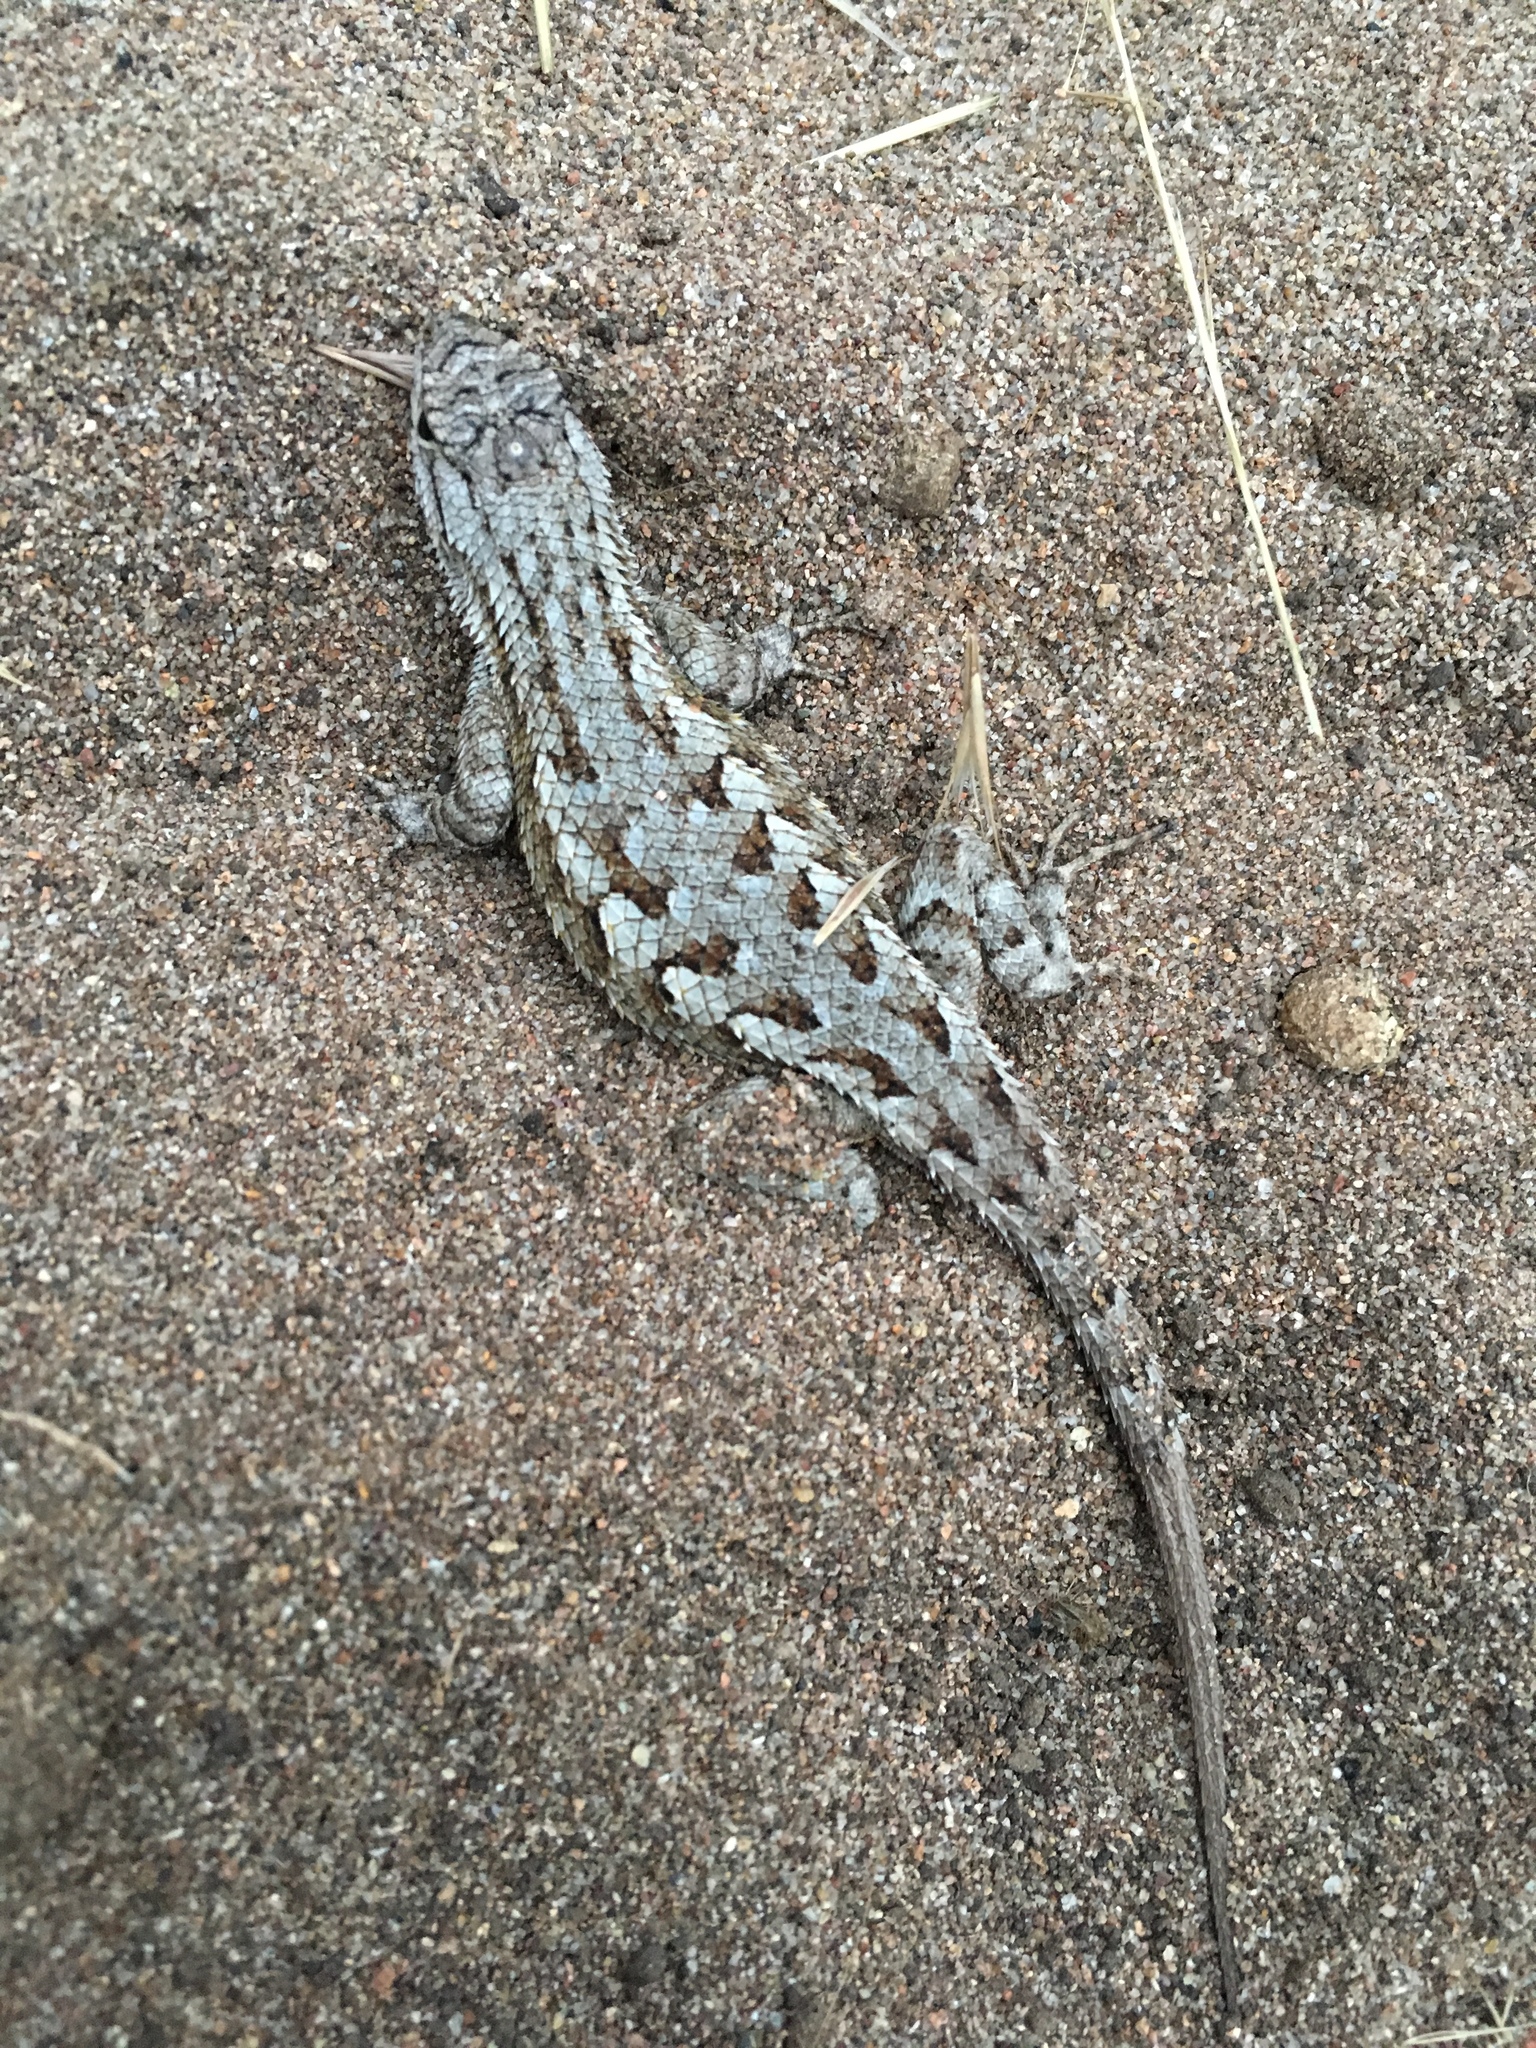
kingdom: Animalia
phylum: Chordata
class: Squamata
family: Phrynosomatidae
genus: Sceloporus
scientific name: Sceloporus occidentalis
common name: Western fence lizard
